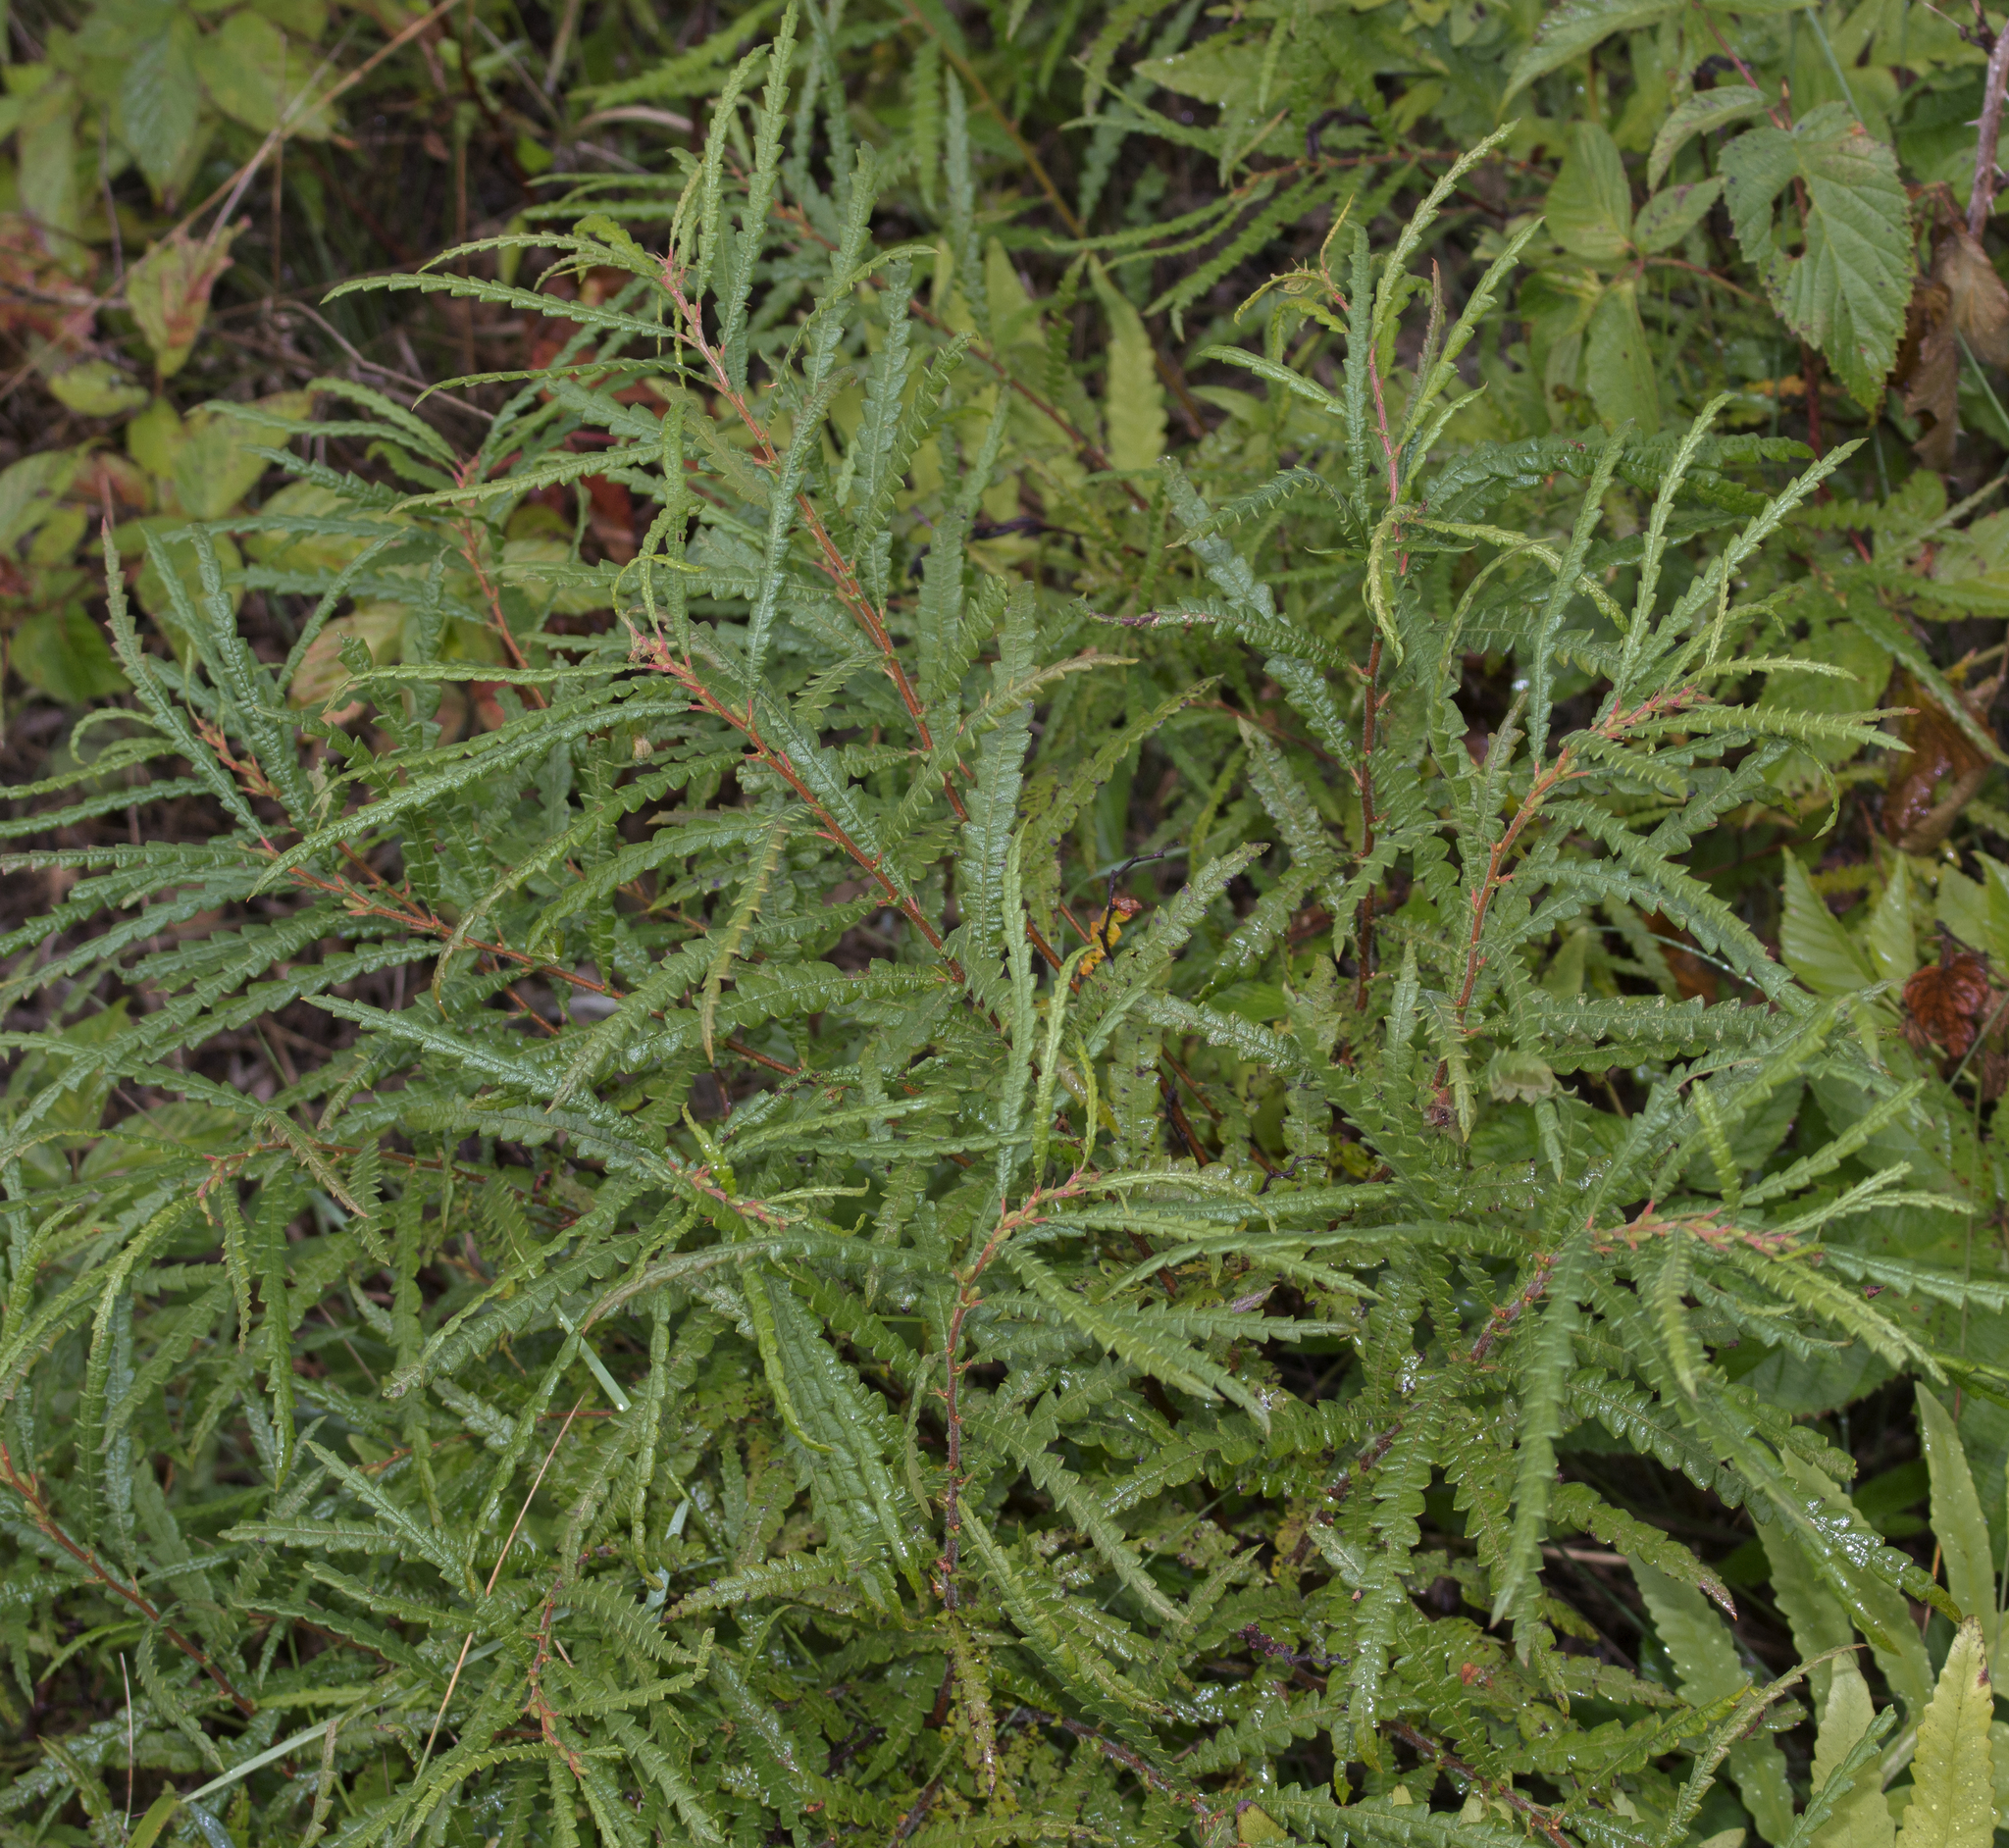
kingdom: Plantae
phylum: Tracheophyta
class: Magnoliopsida
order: Fagales
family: Myricaceae
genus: Comptonia
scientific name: Comptonia peregrina
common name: Sweet-fern
